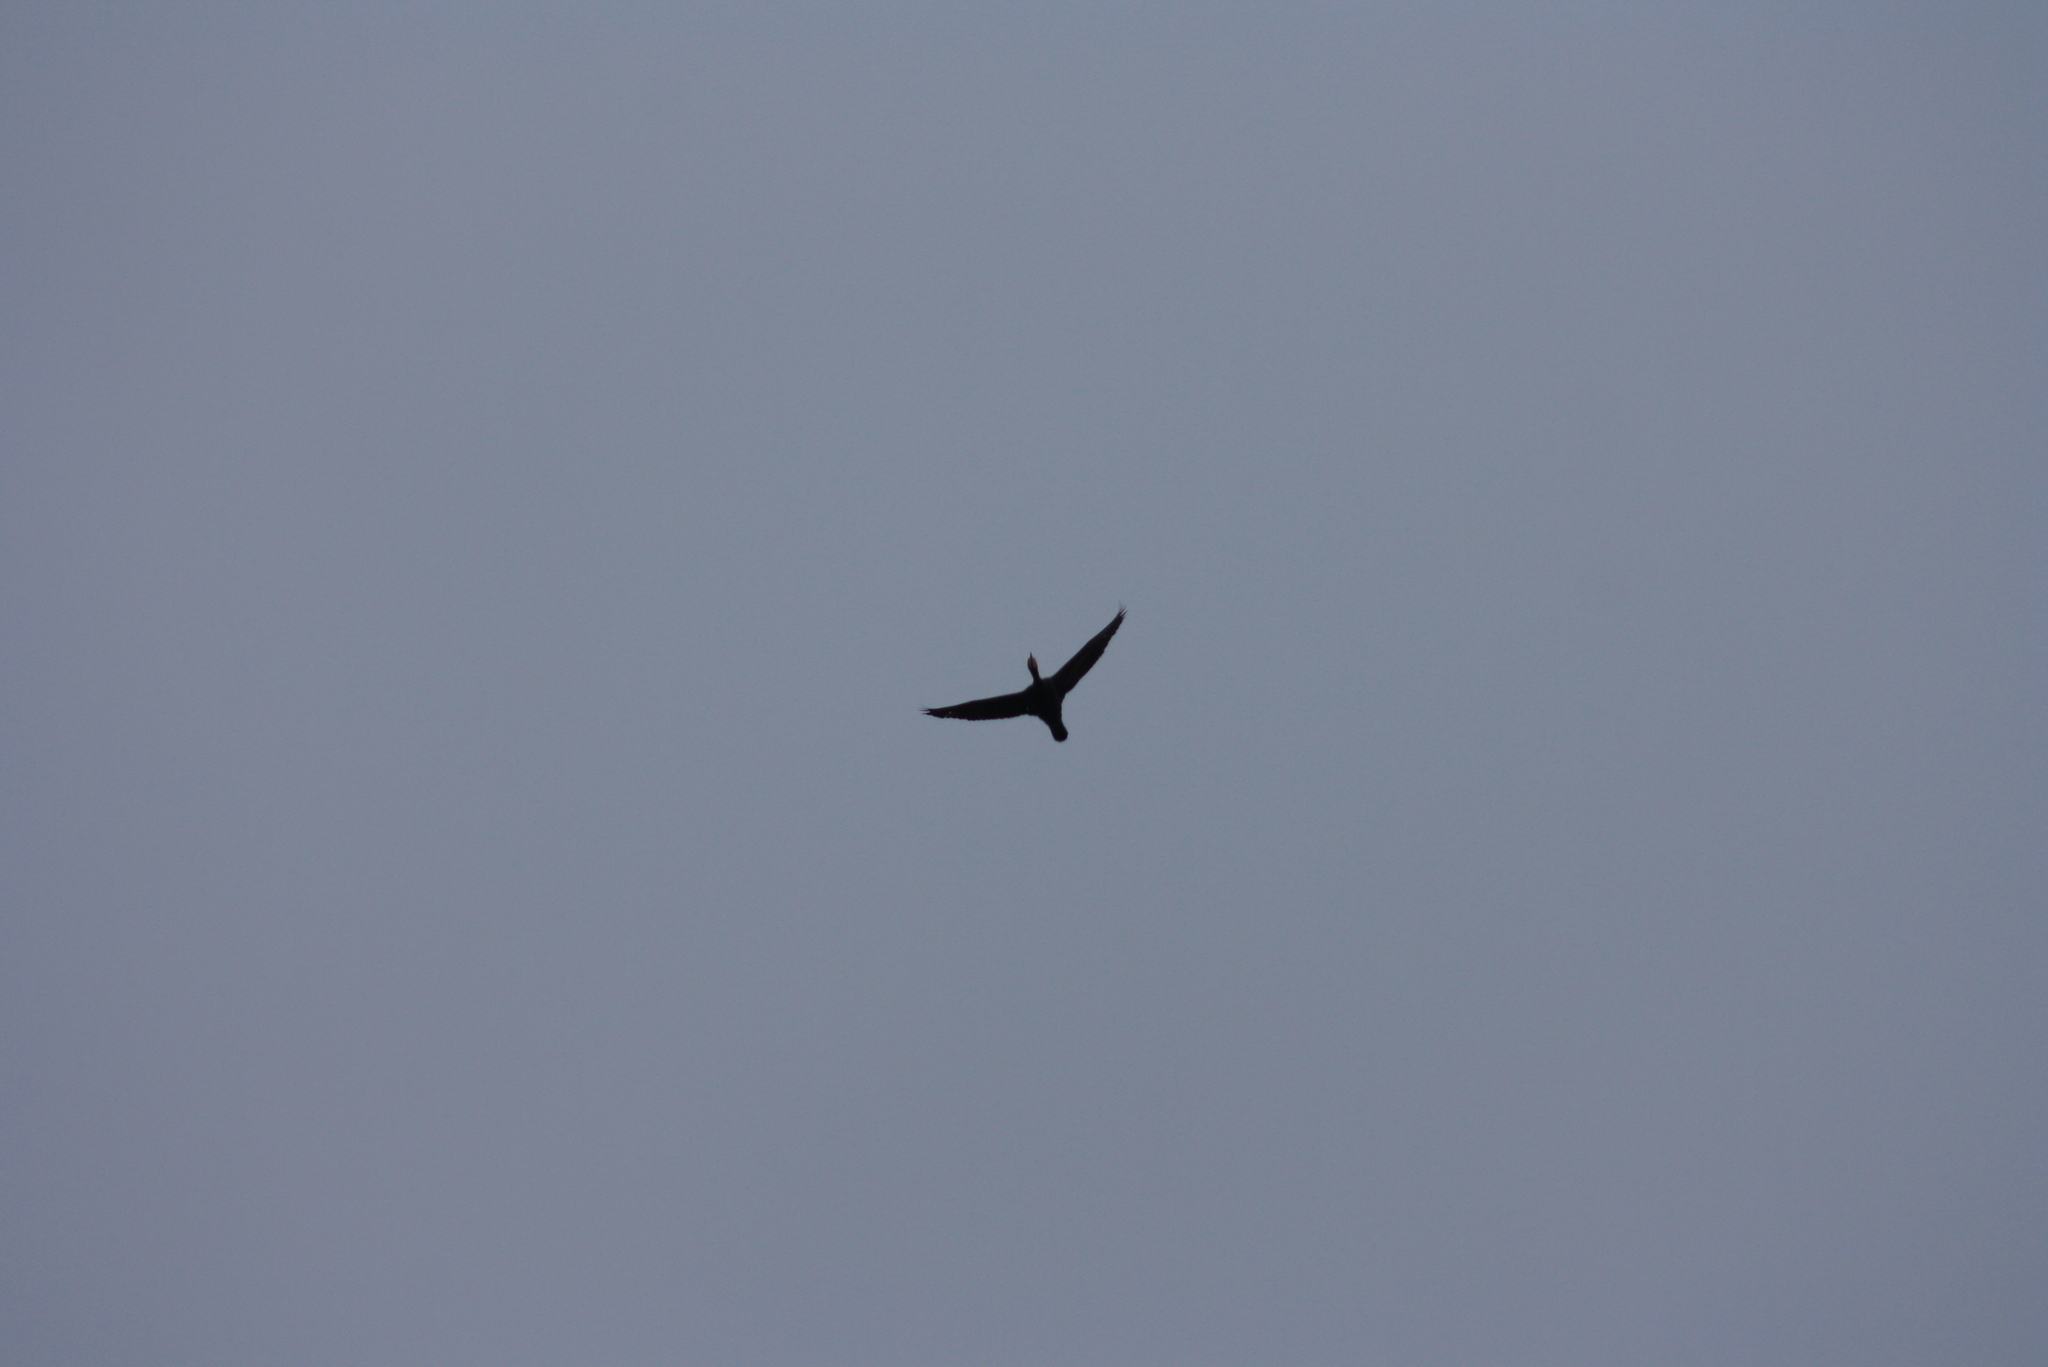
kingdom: Animalia
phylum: Chordata
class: Aves
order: Suliformes
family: Phalacrocoracidae
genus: Phalacrocorax
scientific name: Phalacrocorax carbo
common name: Great cormorant
